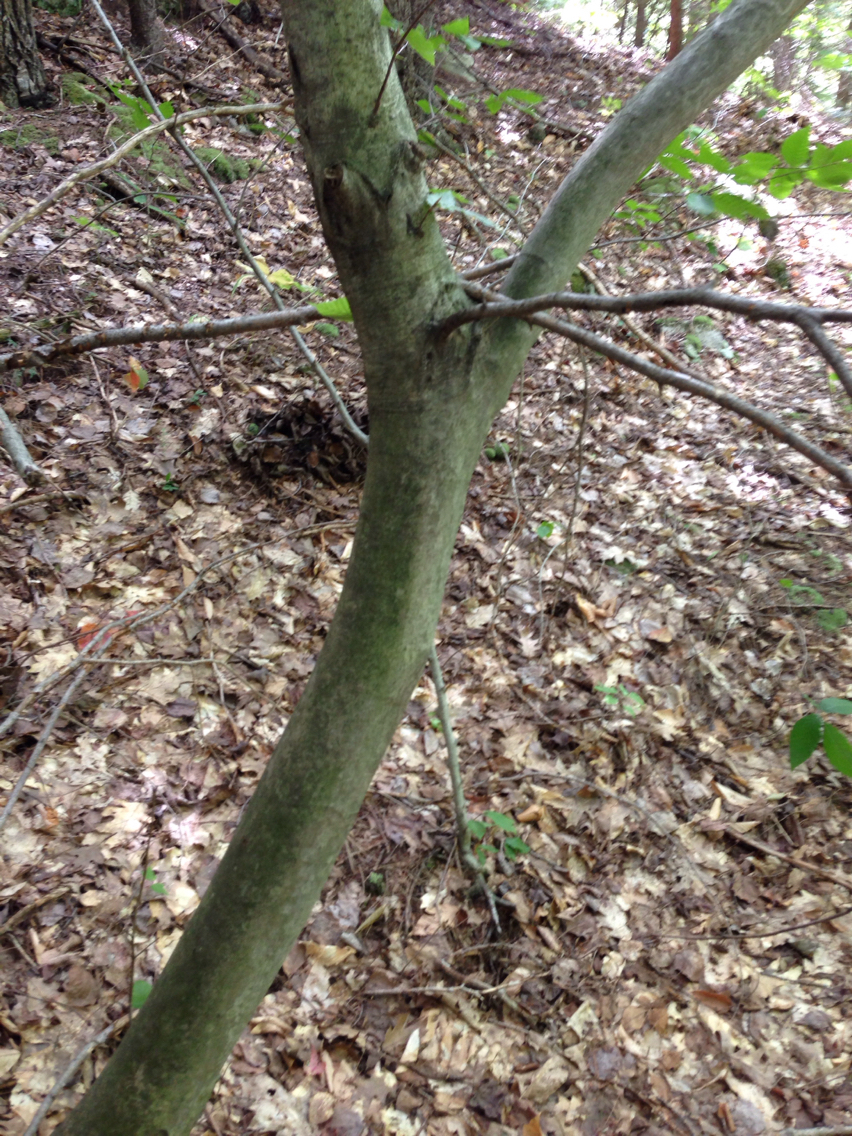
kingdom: Plantae
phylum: Tracheophyta
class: Magnoliopsida
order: Fagales
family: Fagaceae
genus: Fagus
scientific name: Fagus grandifolia
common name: American beech
